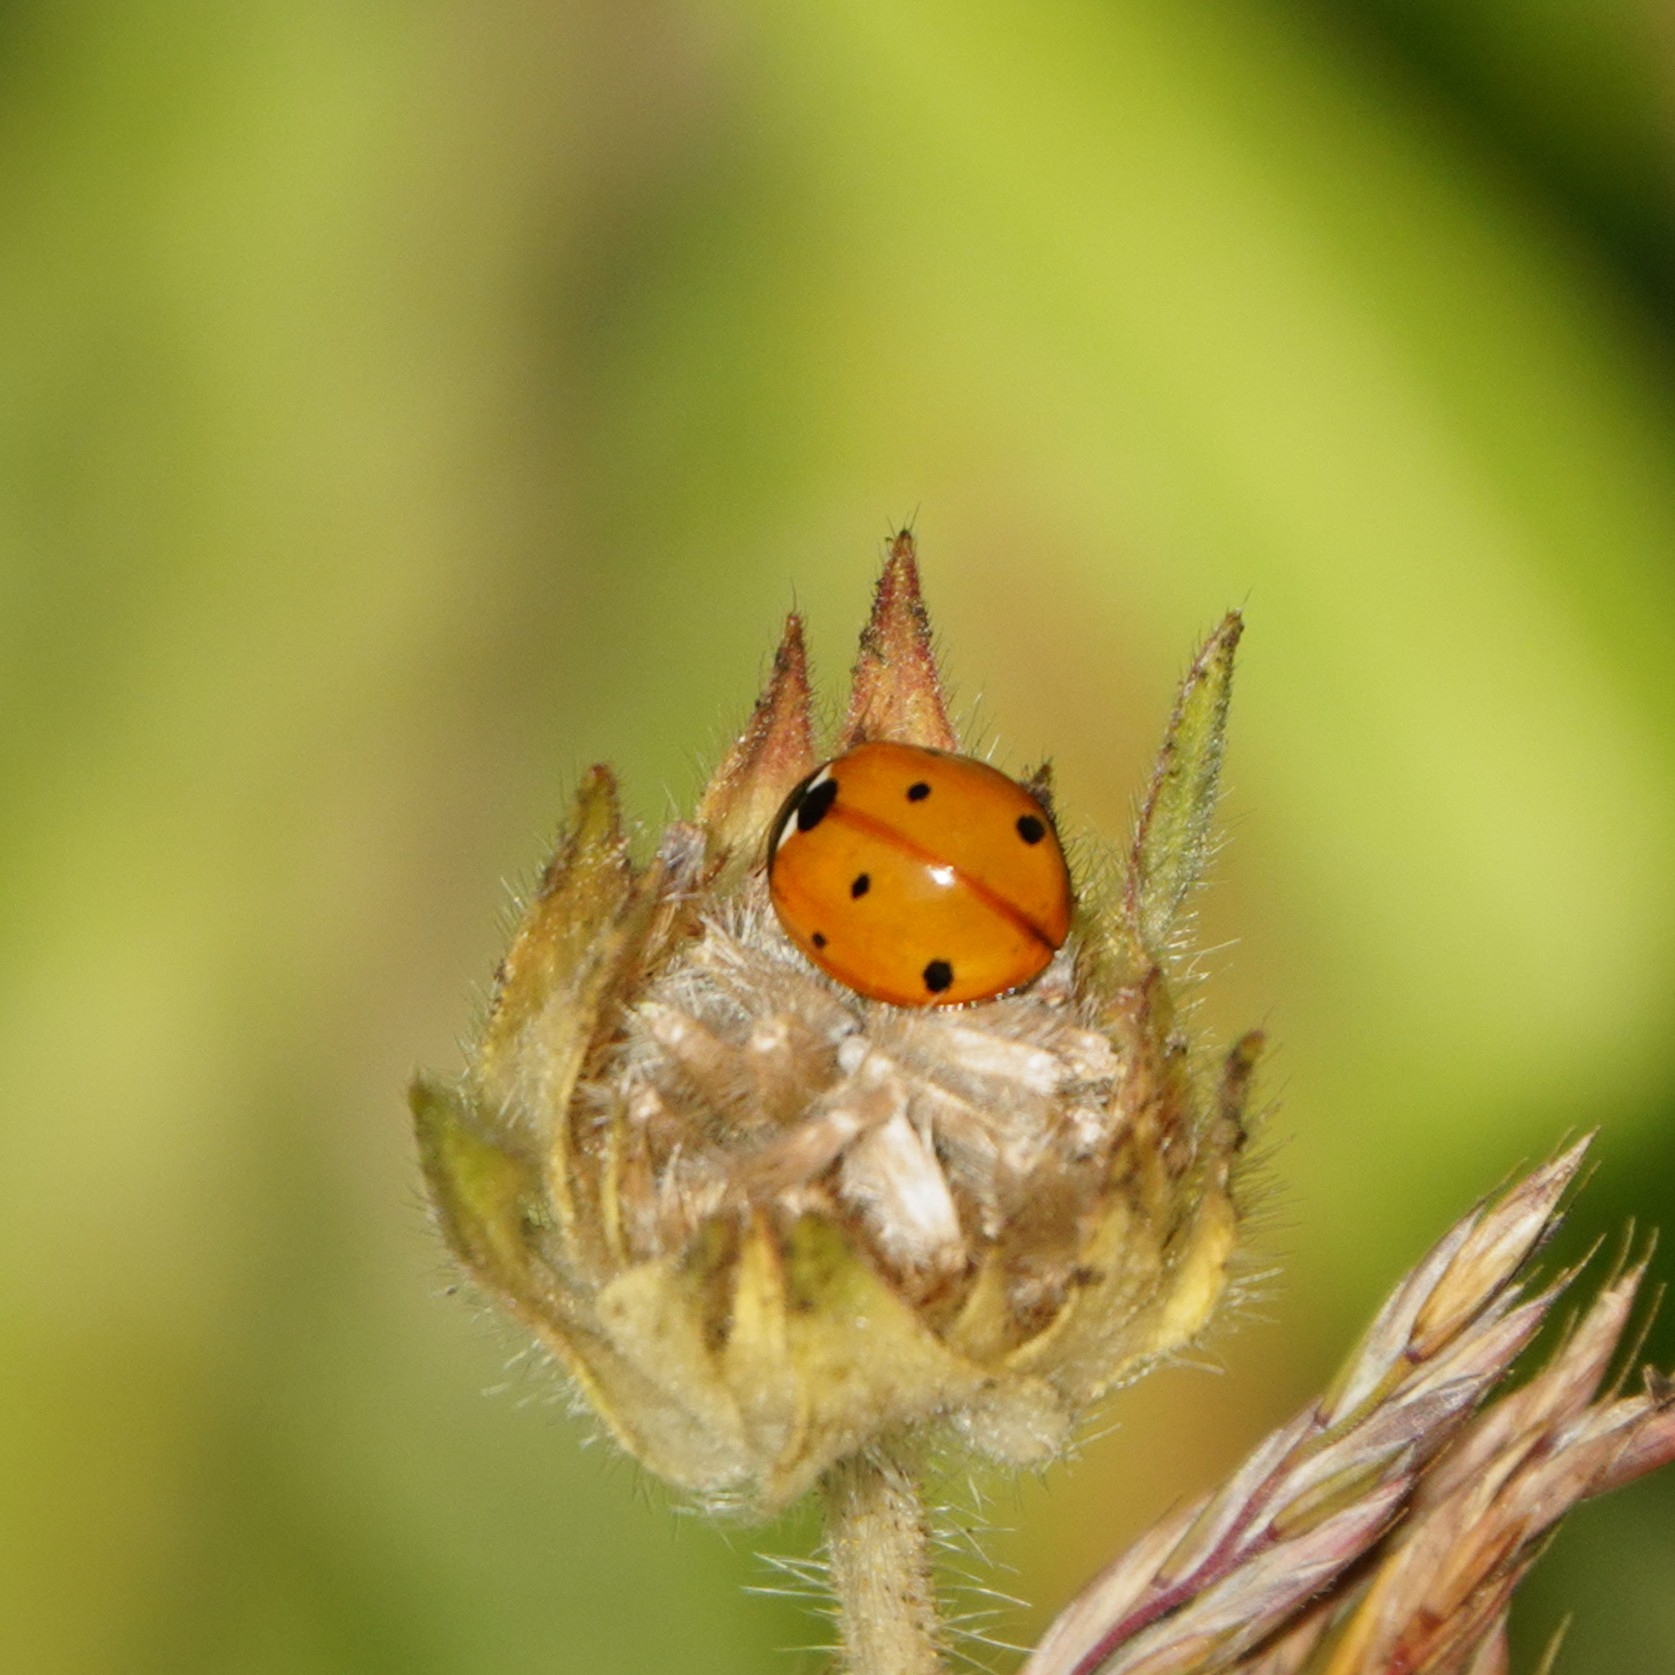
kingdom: Animalia
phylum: Arthropoda
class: Insecta
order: Coleoptera
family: Coccinellidae
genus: Coccinella
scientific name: Coccinella septempunctata
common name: Sevenspotted lady beetle
